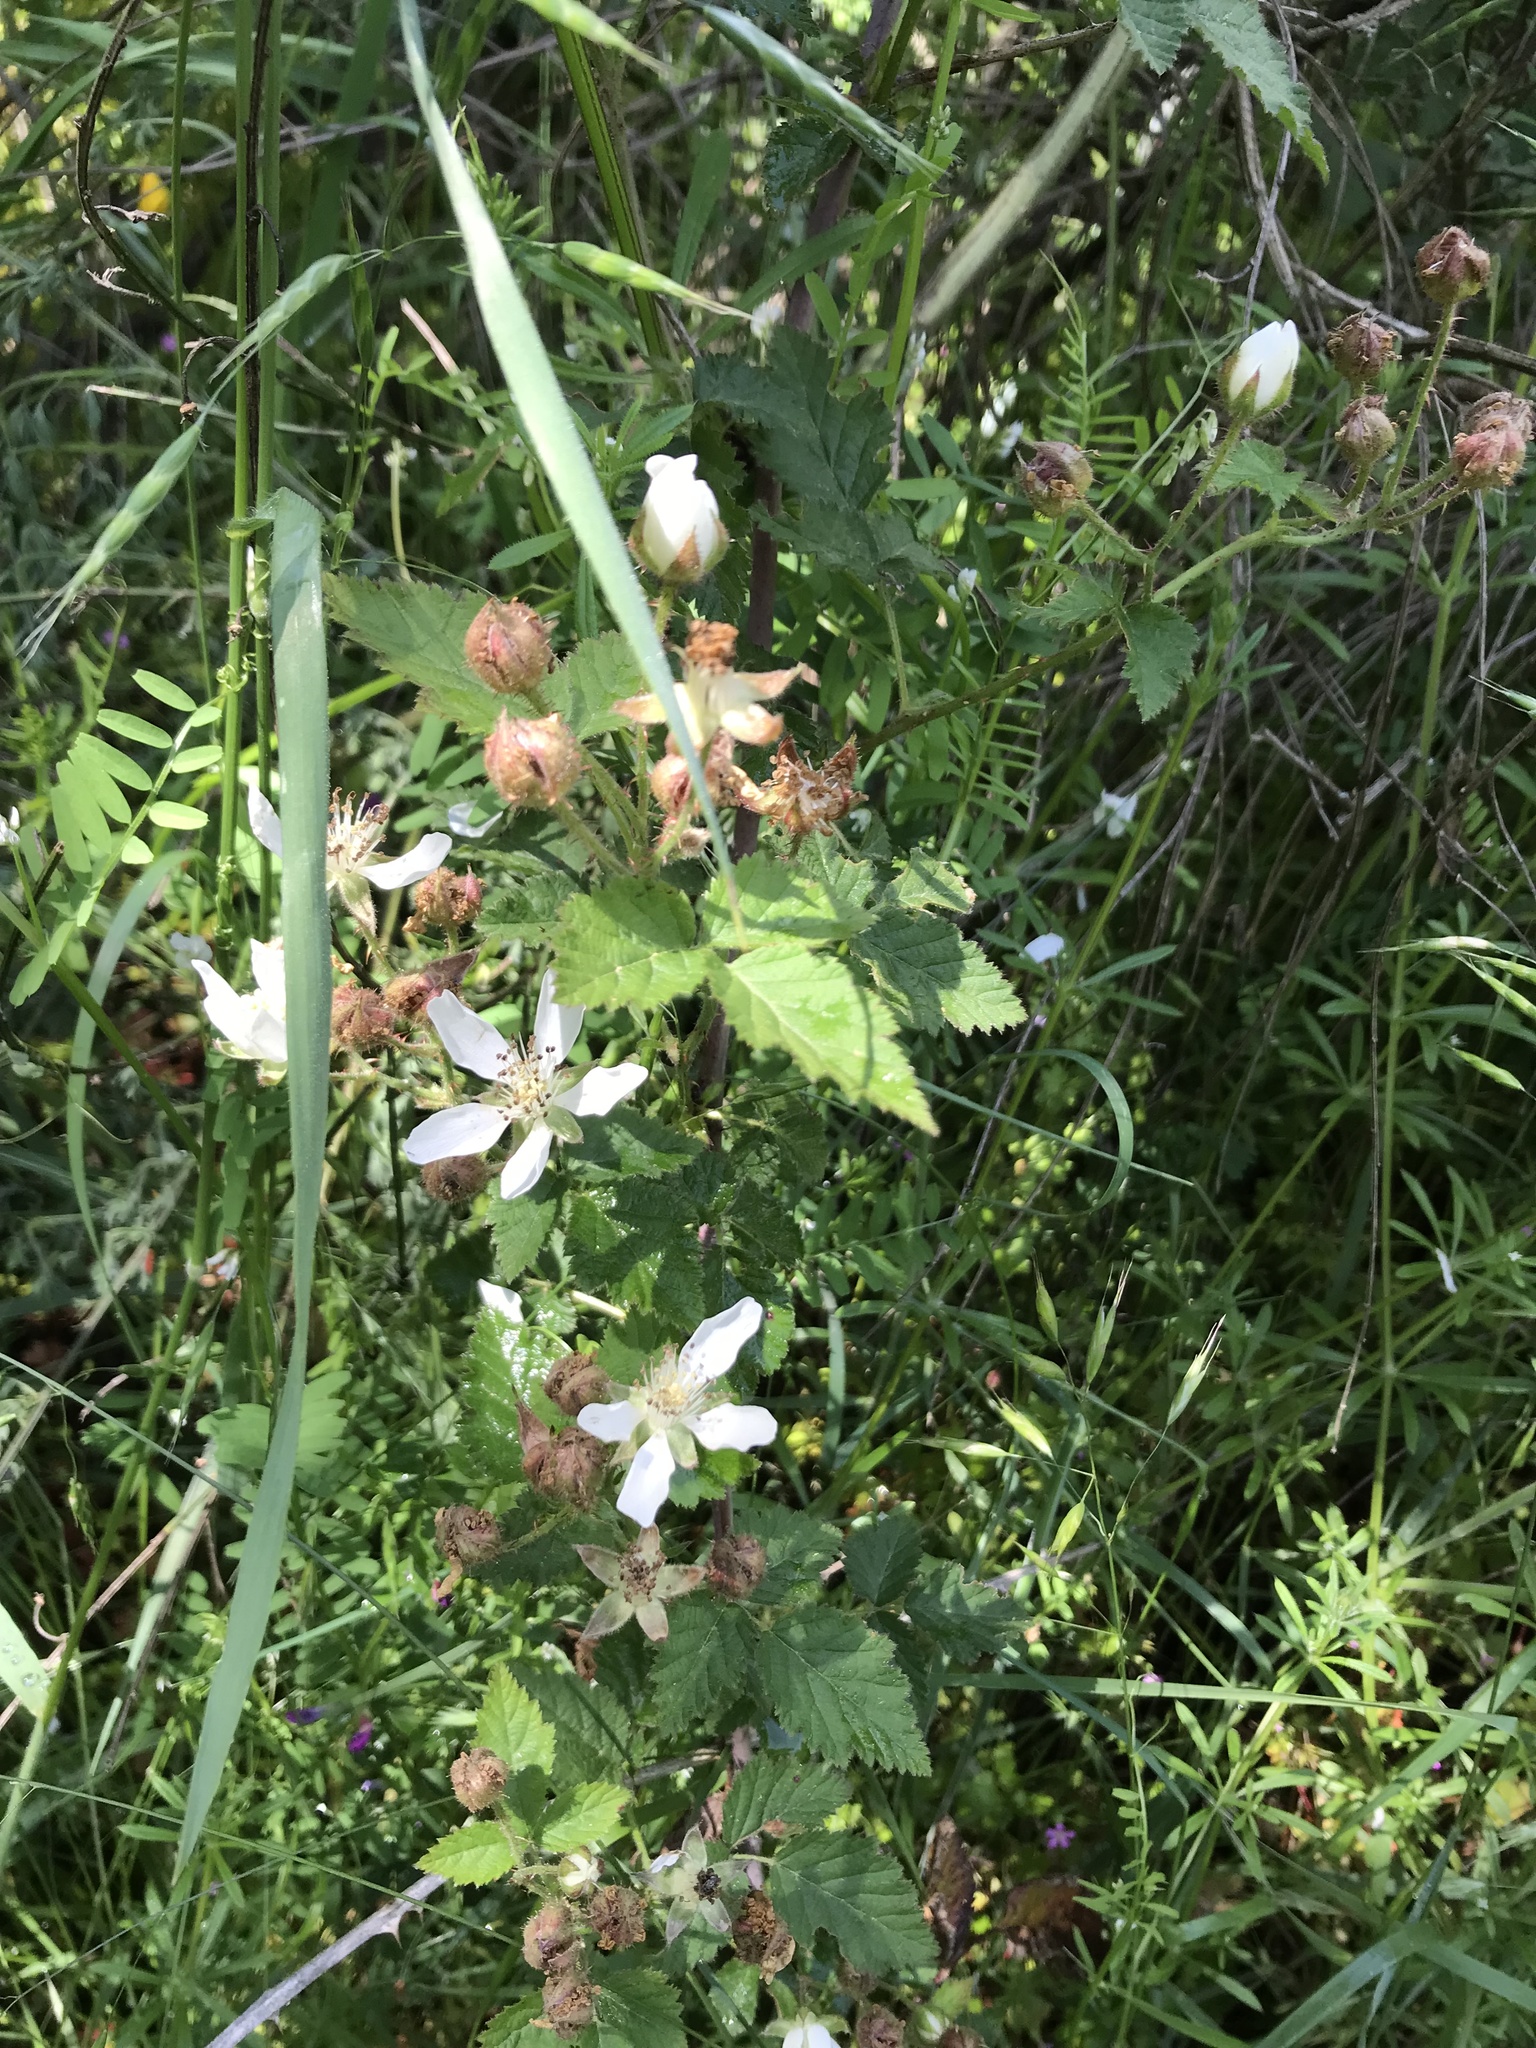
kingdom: Plantae
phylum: Tracheophyta
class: Magnoliopsida
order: Rosales
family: Rosaceae
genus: Rubus
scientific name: Rubus ursinus
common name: Pacific blackberry
